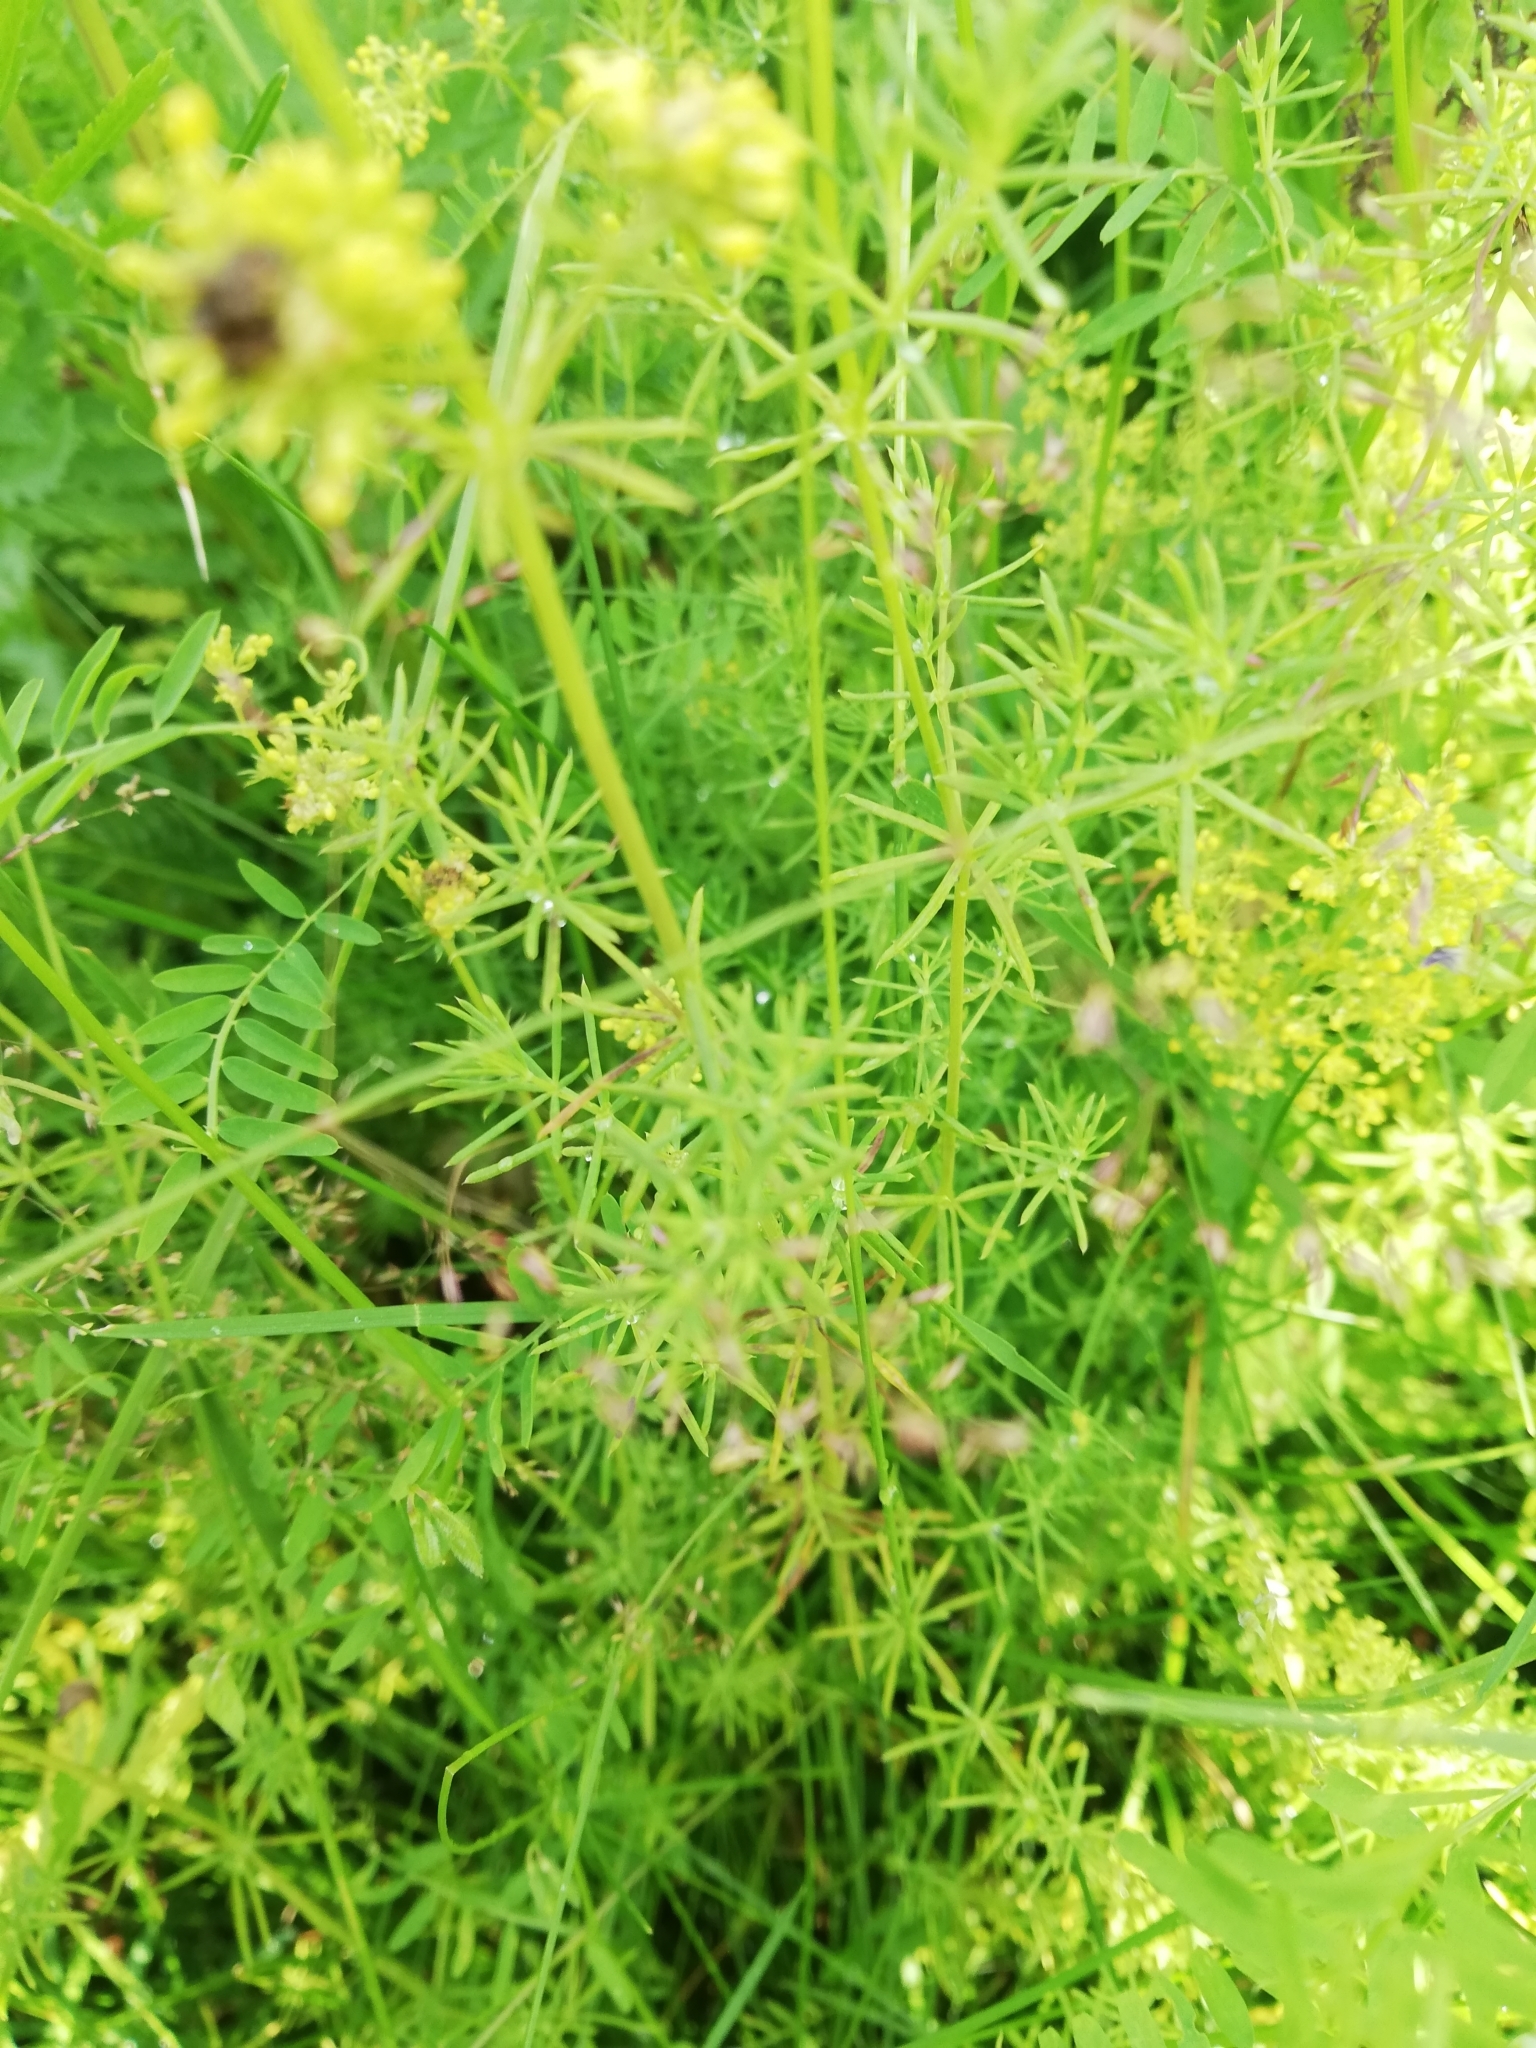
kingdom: Plantae
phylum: Tracheophyta
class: Magnoliopsida
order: Gentianales
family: Rubiaceae
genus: Galium
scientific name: Galium verum
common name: Lady's bedstraw
